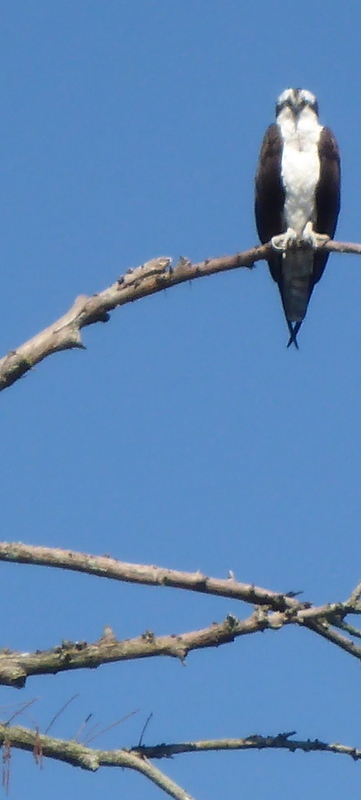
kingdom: Animalia
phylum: Chordata
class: Aves
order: Accipitriformes
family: Pandionidae
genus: Pandion
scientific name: Pandion haliaetus
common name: Osprey
